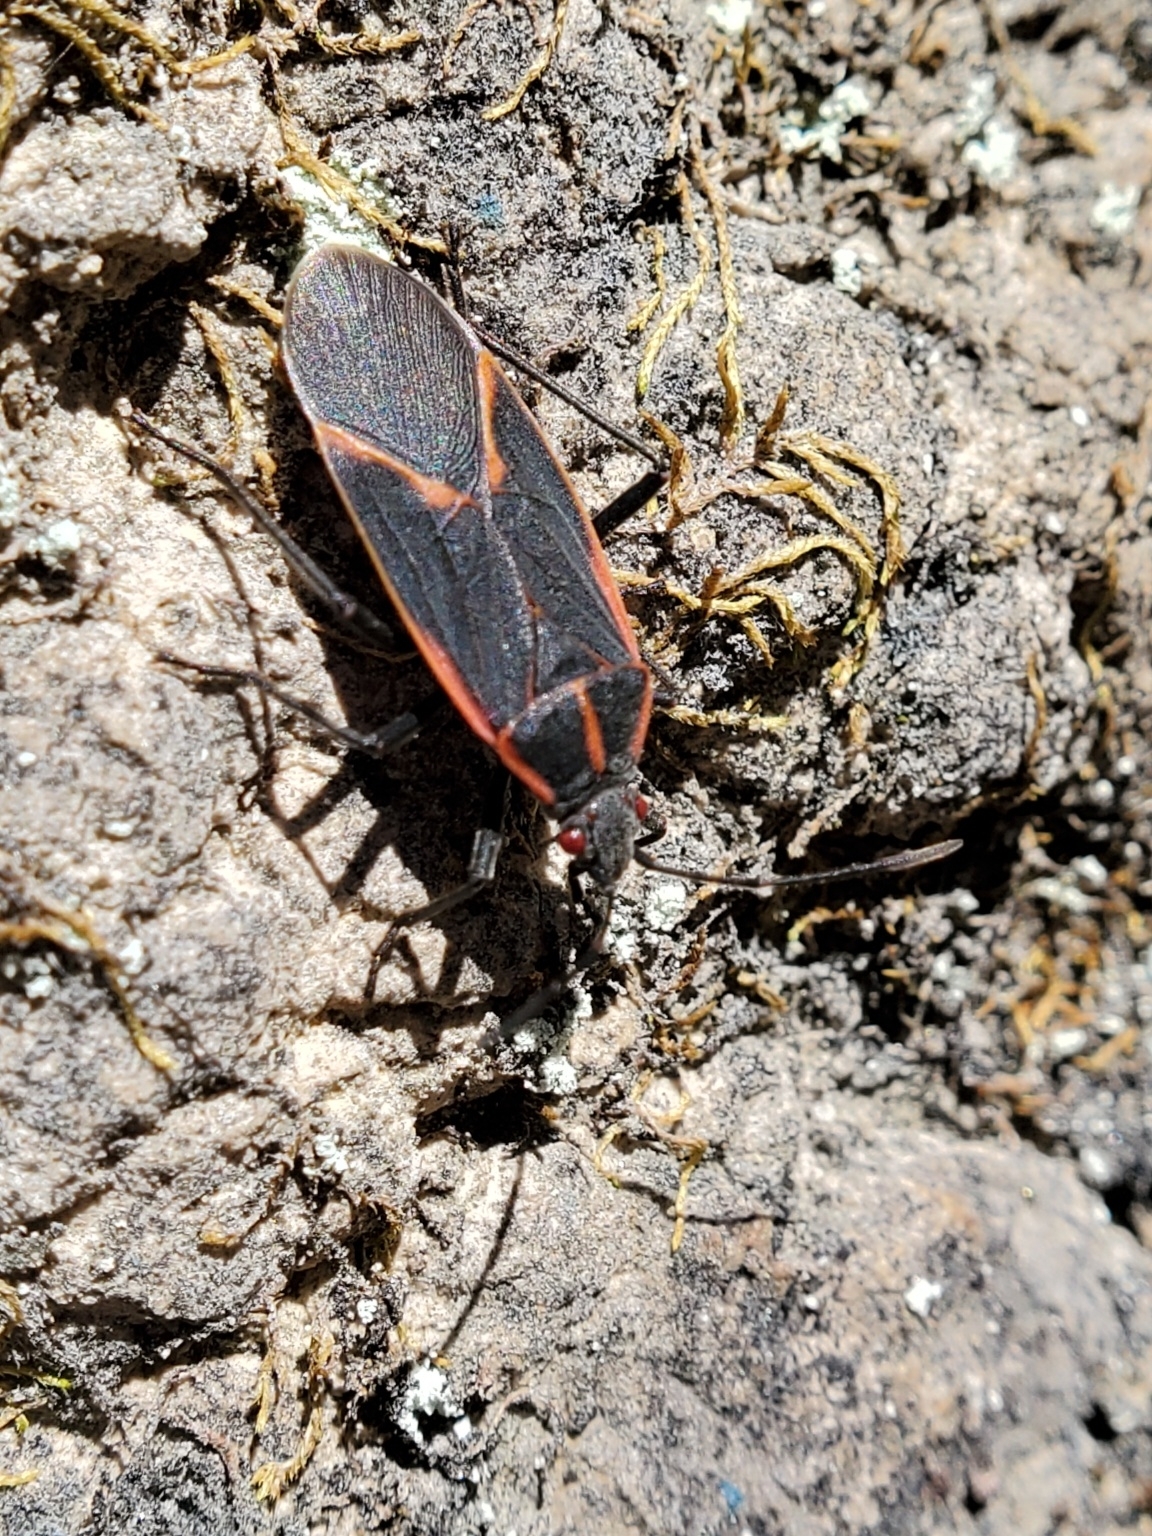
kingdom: Animalia
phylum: Arthropoda
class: Insecta
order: Hemiptera
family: Rhopalidae
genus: Boisea
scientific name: Boisea trivittata
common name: Boxelder bug
